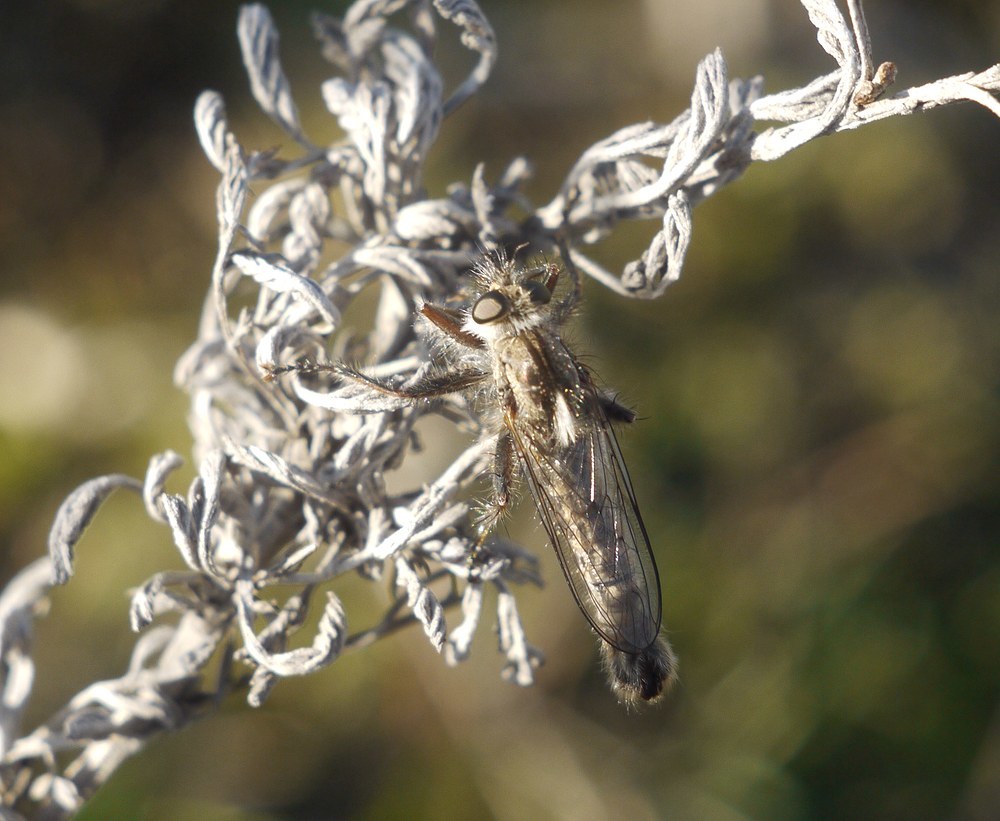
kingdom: Animalia
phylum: Arthropoda
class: Insecta
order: Diptera
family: Asilidae
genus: Erax
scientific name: Erax crassicauda
